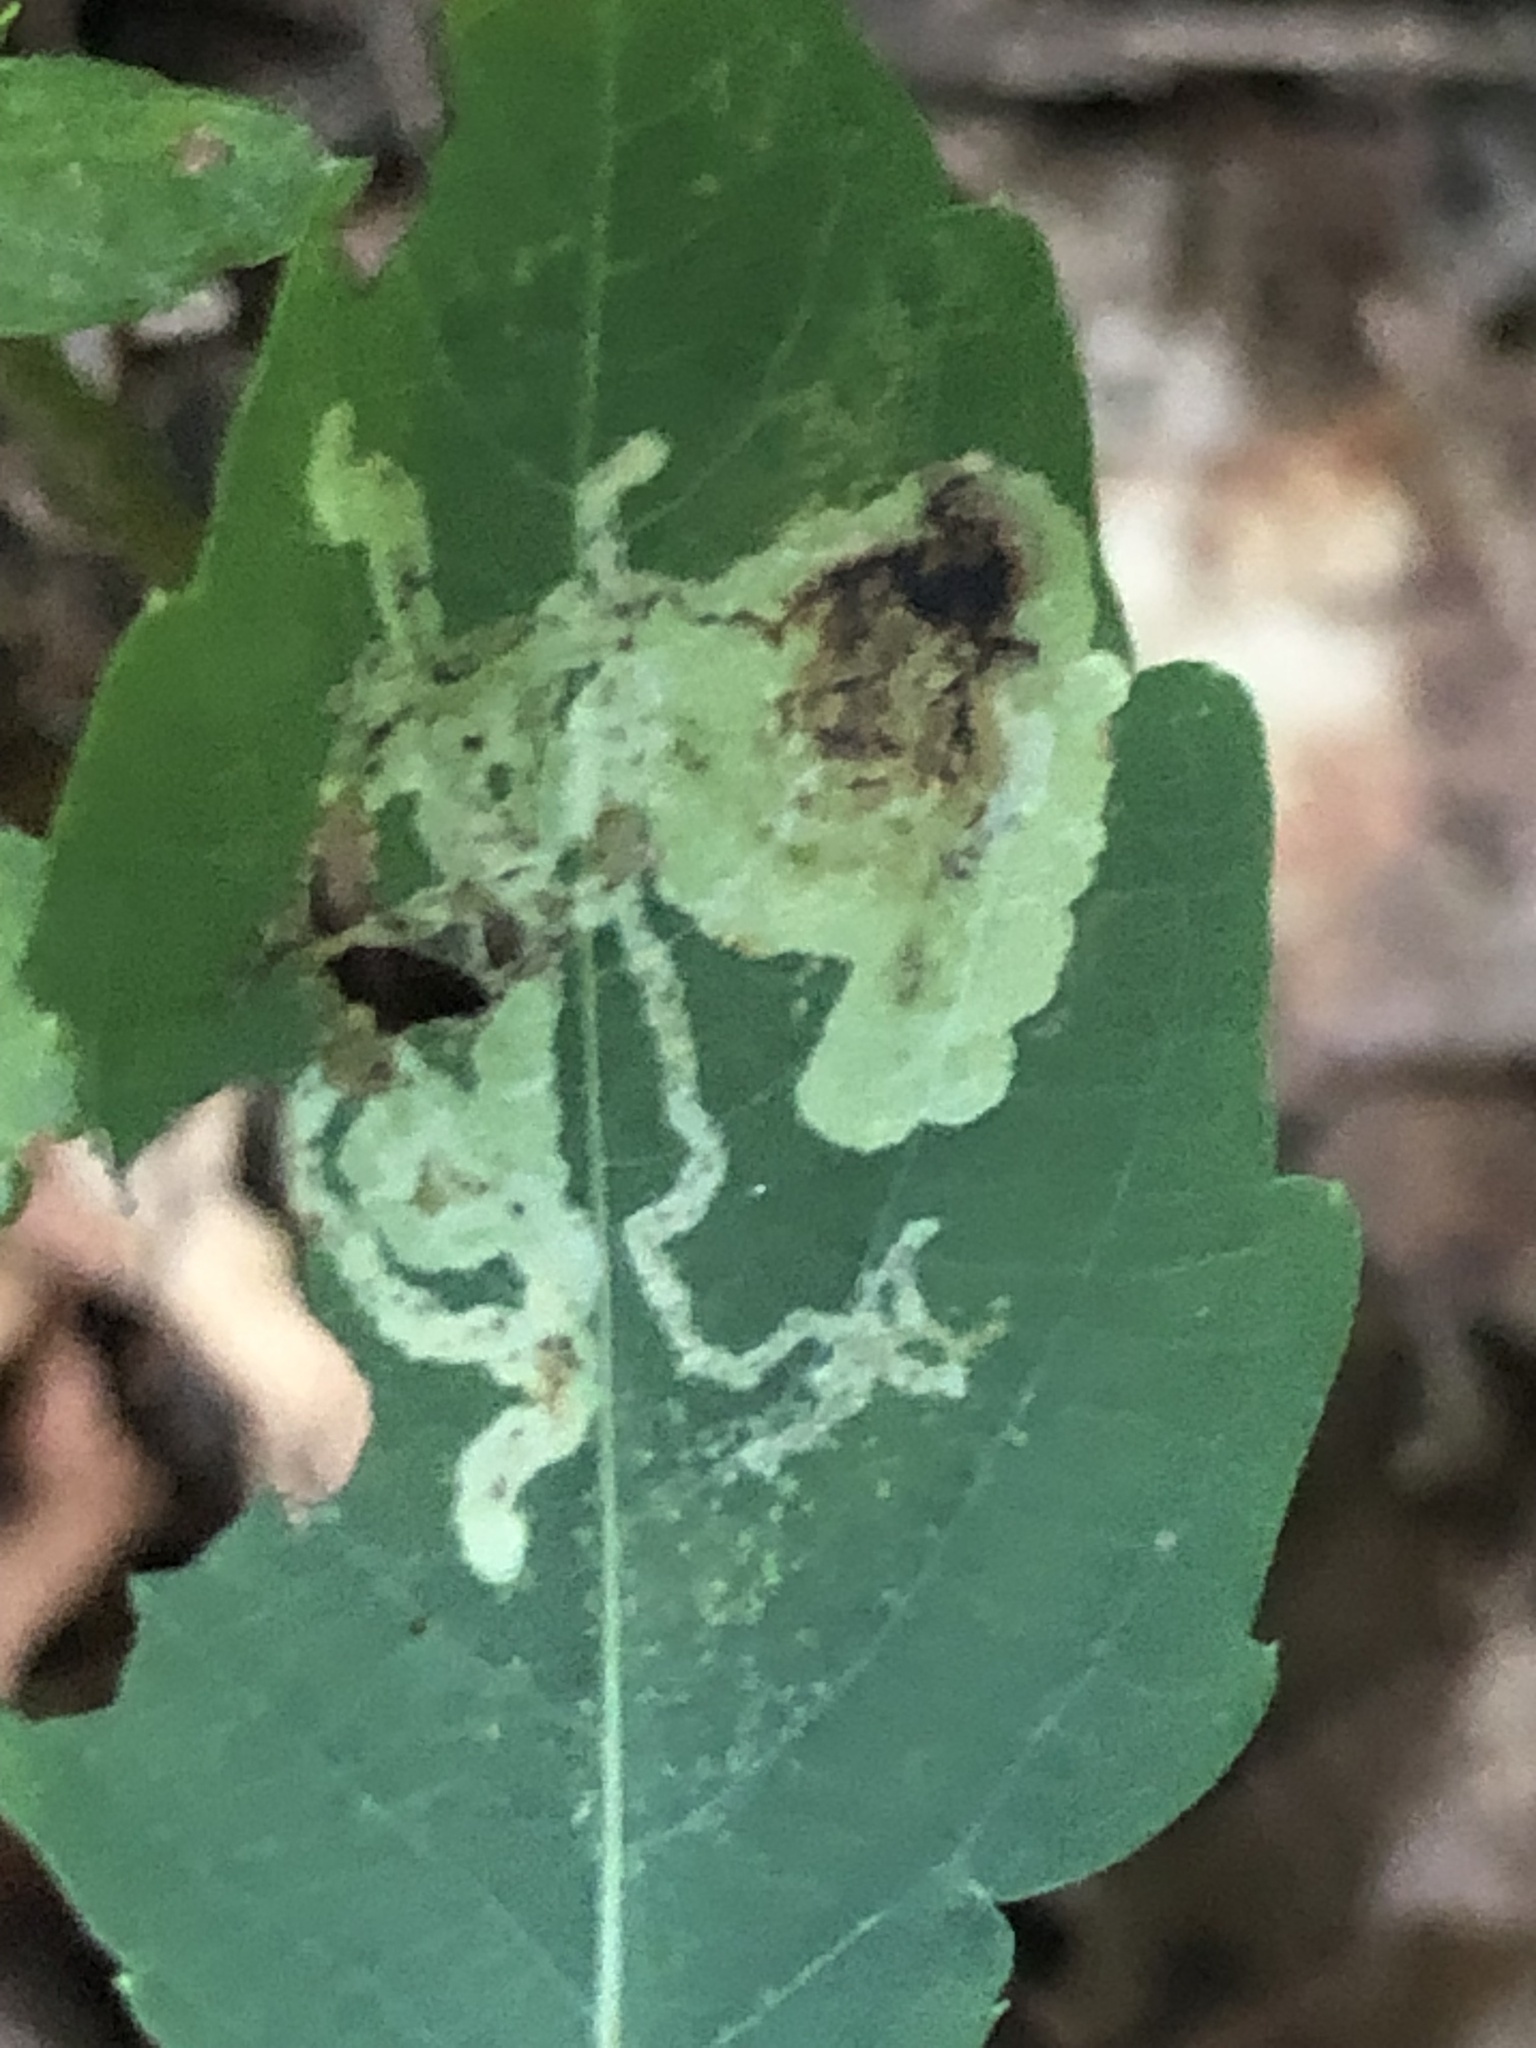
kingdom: Animalia
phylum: Arthropoda
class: Insecta
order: Diptera
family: Agromyzidae
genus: Phytoliriomyza
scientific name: Phytoliriomyza melampyga
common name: Jewelweed leaf-miner fly
